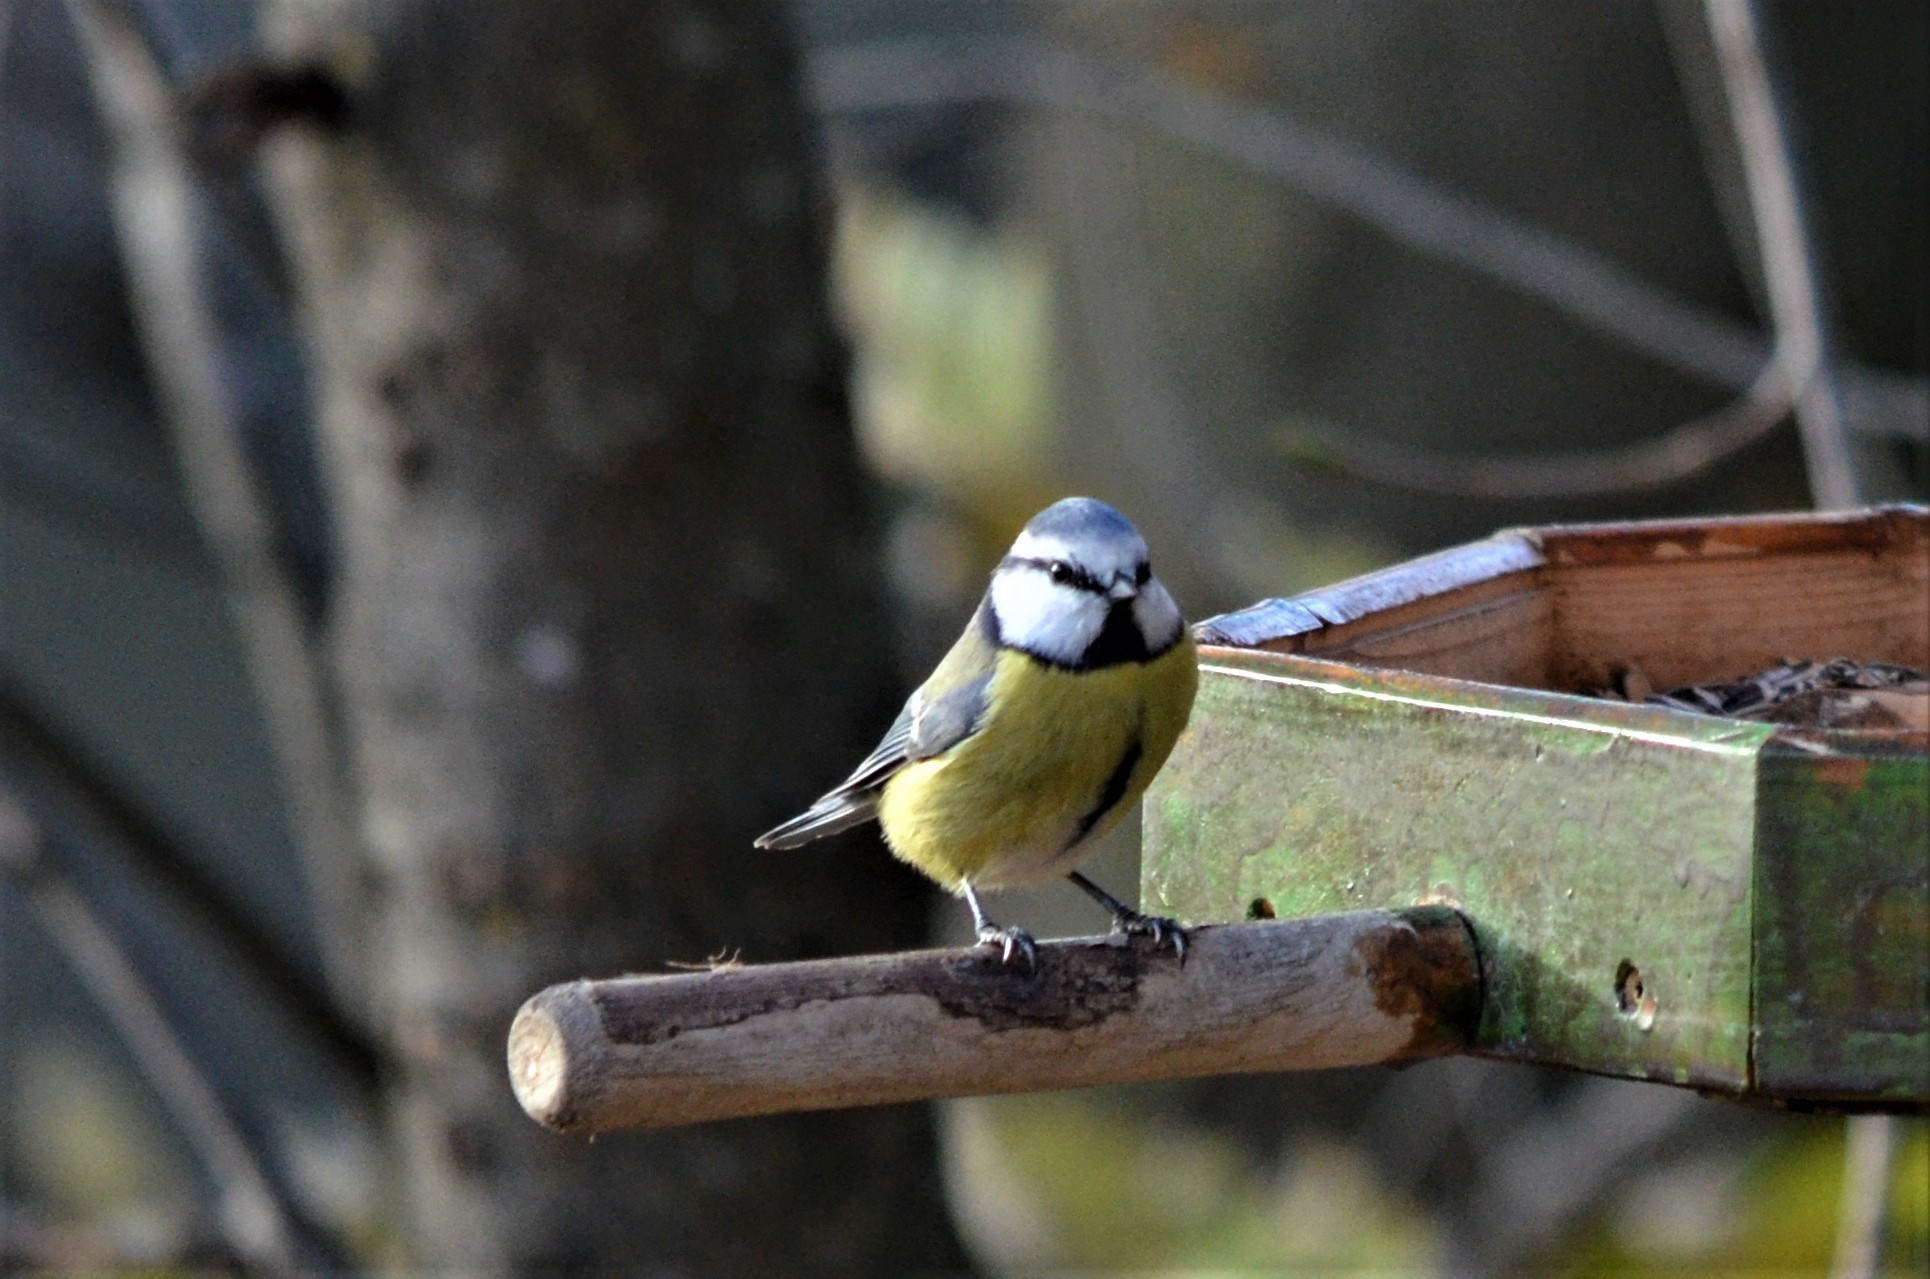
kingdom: Animalia
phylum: Chordata
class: Aves
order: Passeriformes
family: Paridae
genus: Cyanistes
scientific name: Cyanistes caeruleus
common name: Eurasian blue tit
